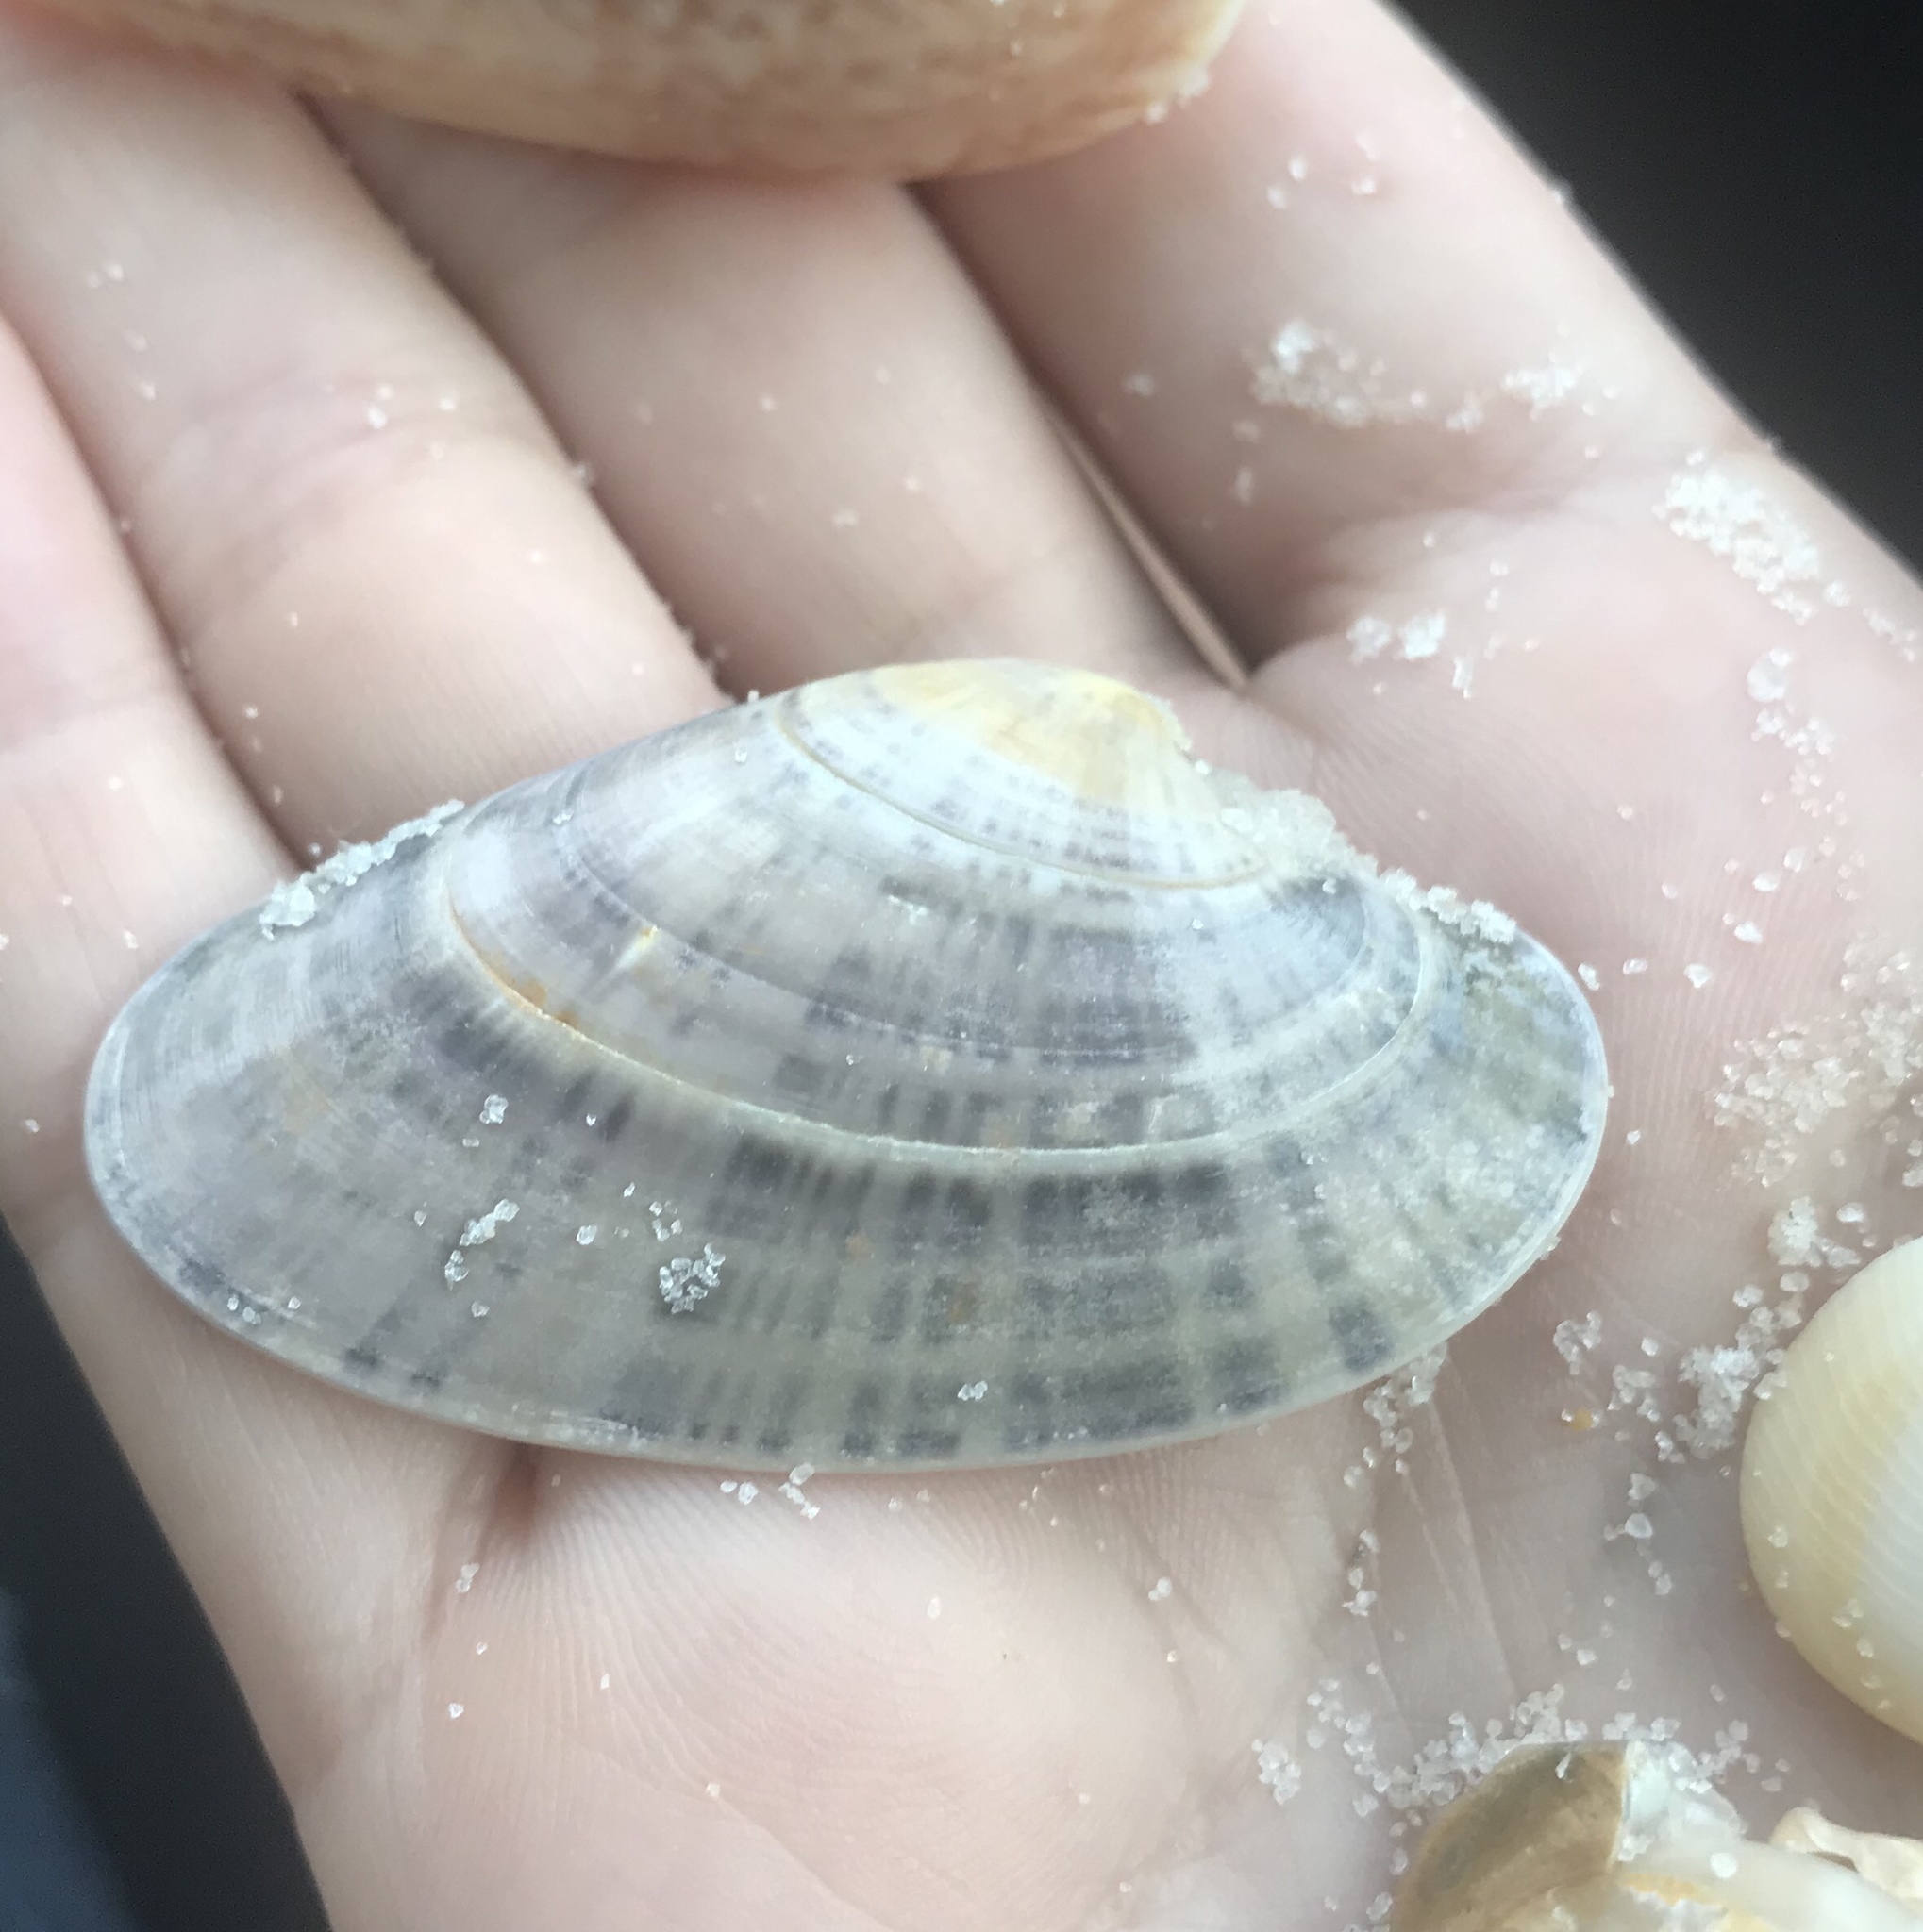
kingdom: Animalia
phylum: Mollusca
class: Bivalvia
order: Venerida
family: Veneridae
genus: Macrocallista
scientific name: Macrocallista nimbosa
